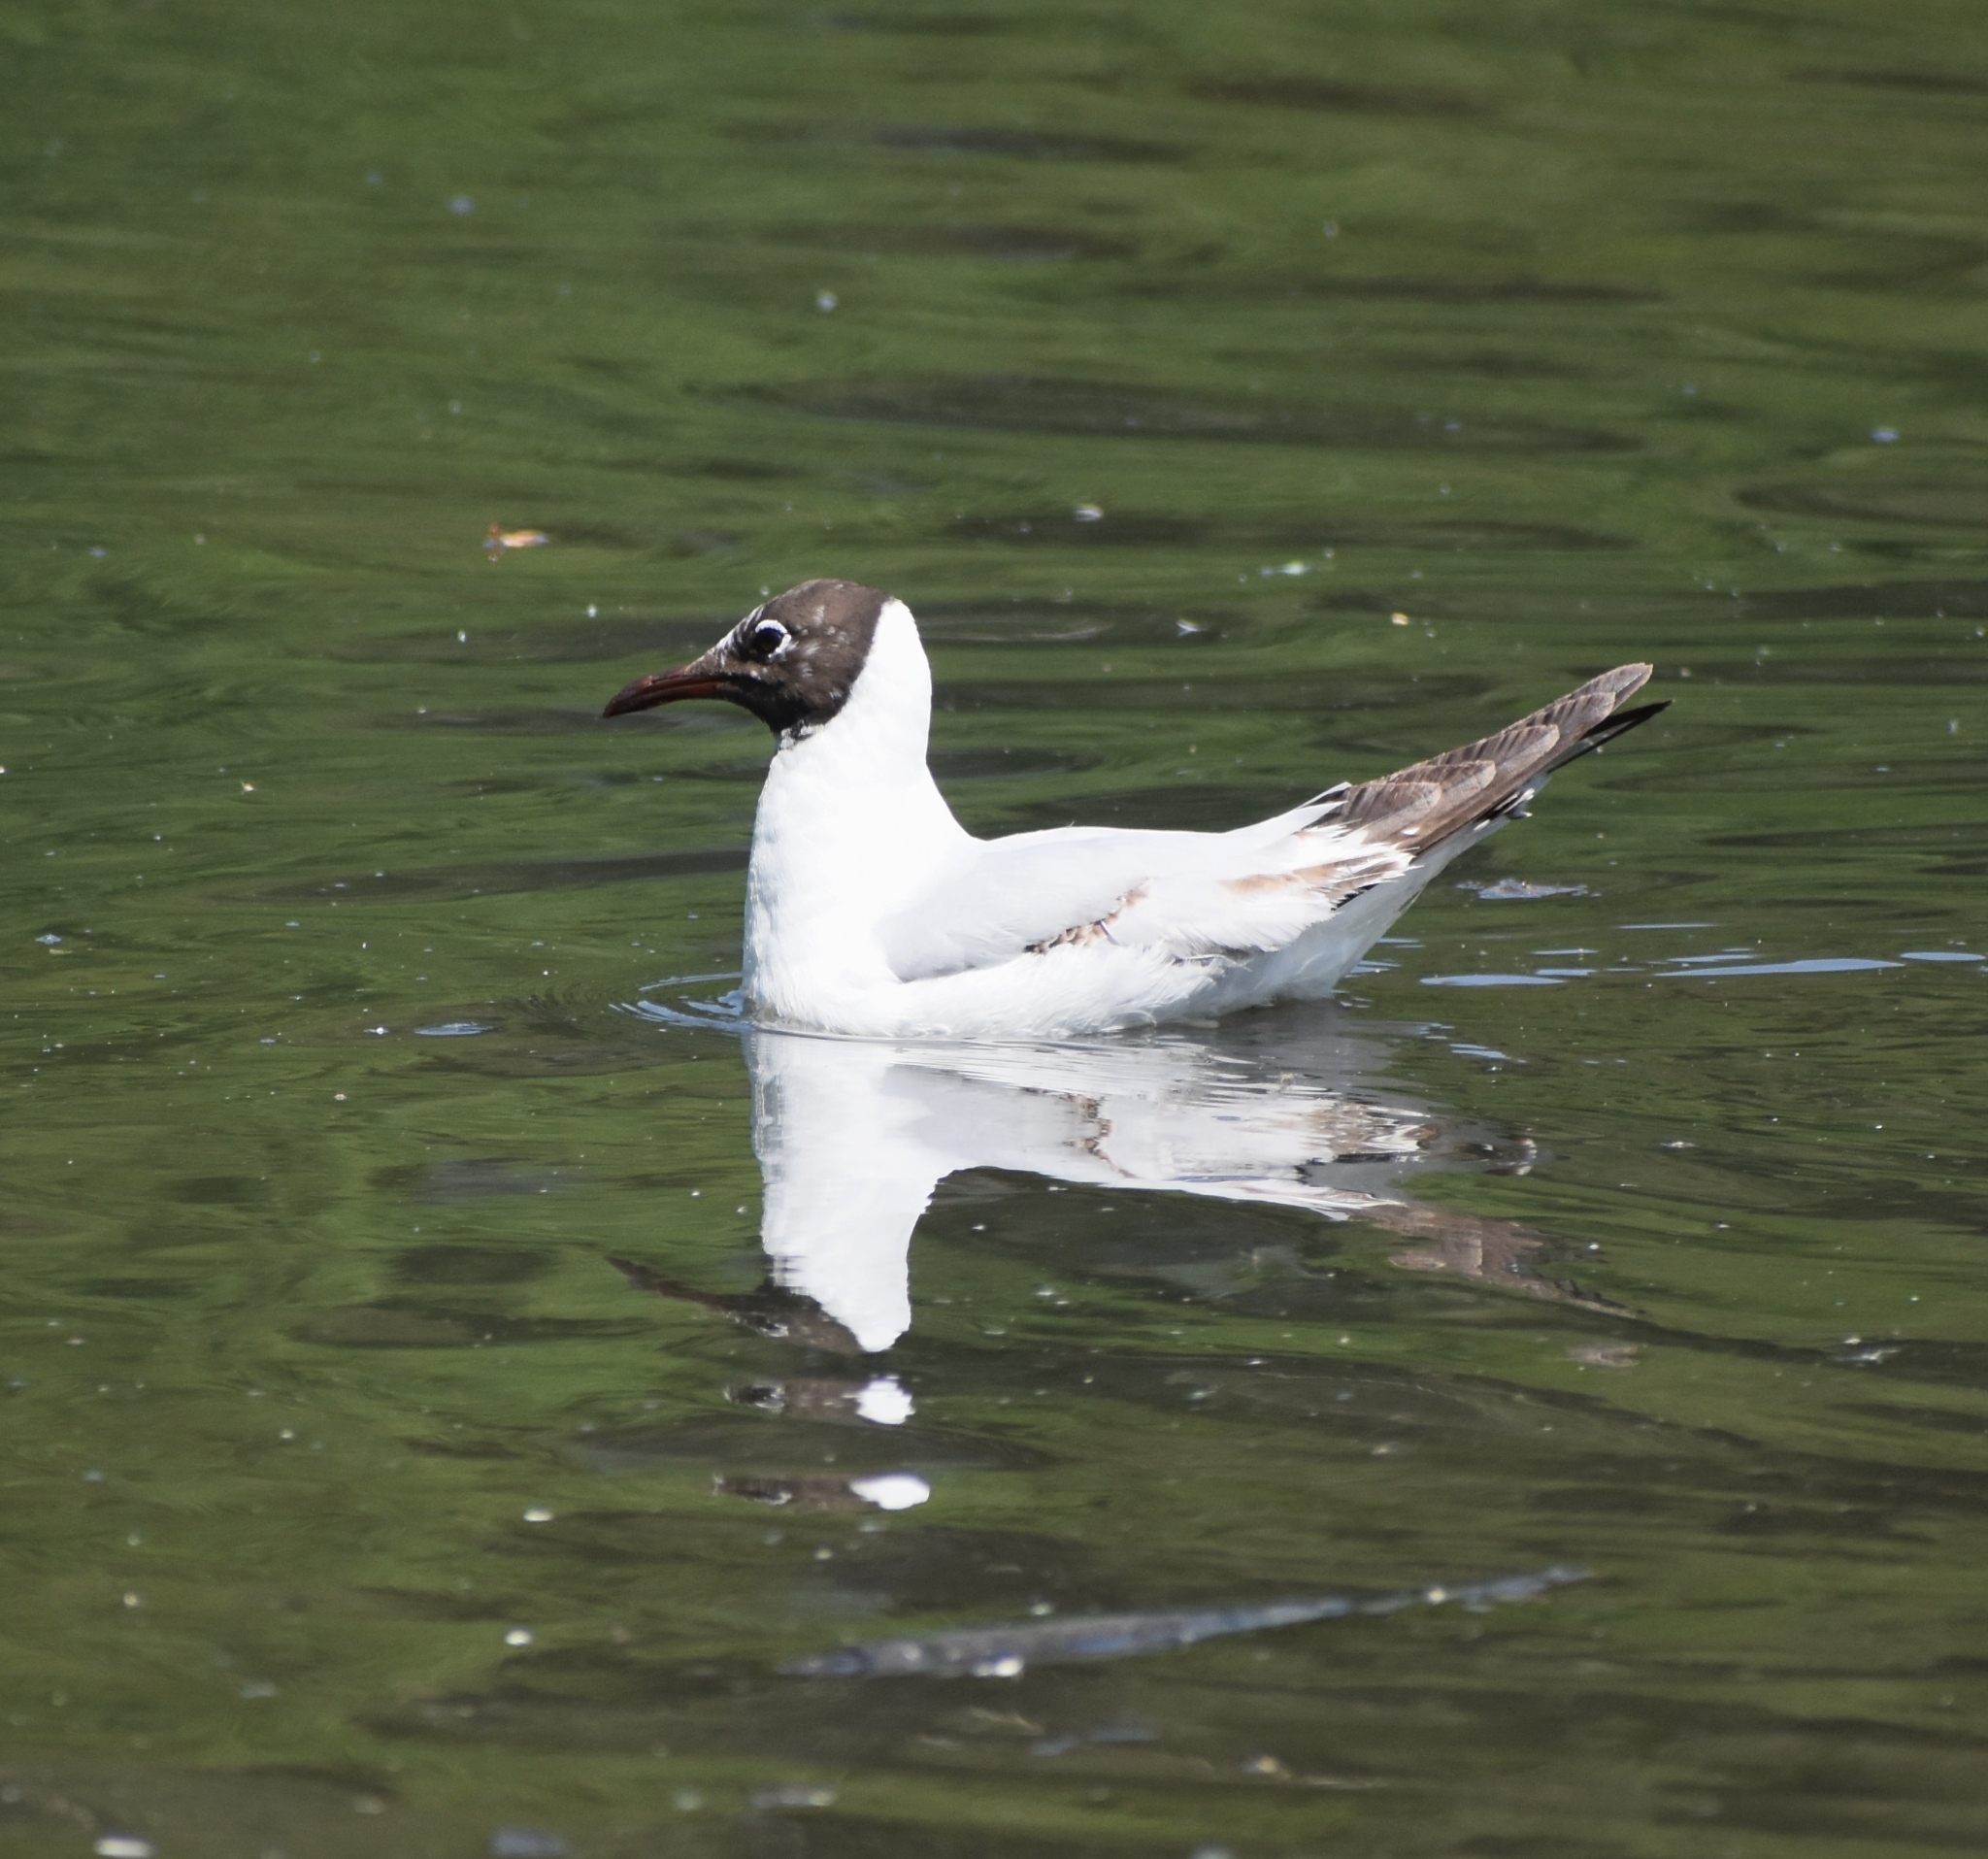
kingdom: Animalia
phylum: Chordata
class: Aves
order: Charadriiformes
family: Laridae
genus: Chroicocephalus
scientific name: Chroicocephalus ridibundus
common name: Black-headed gull
